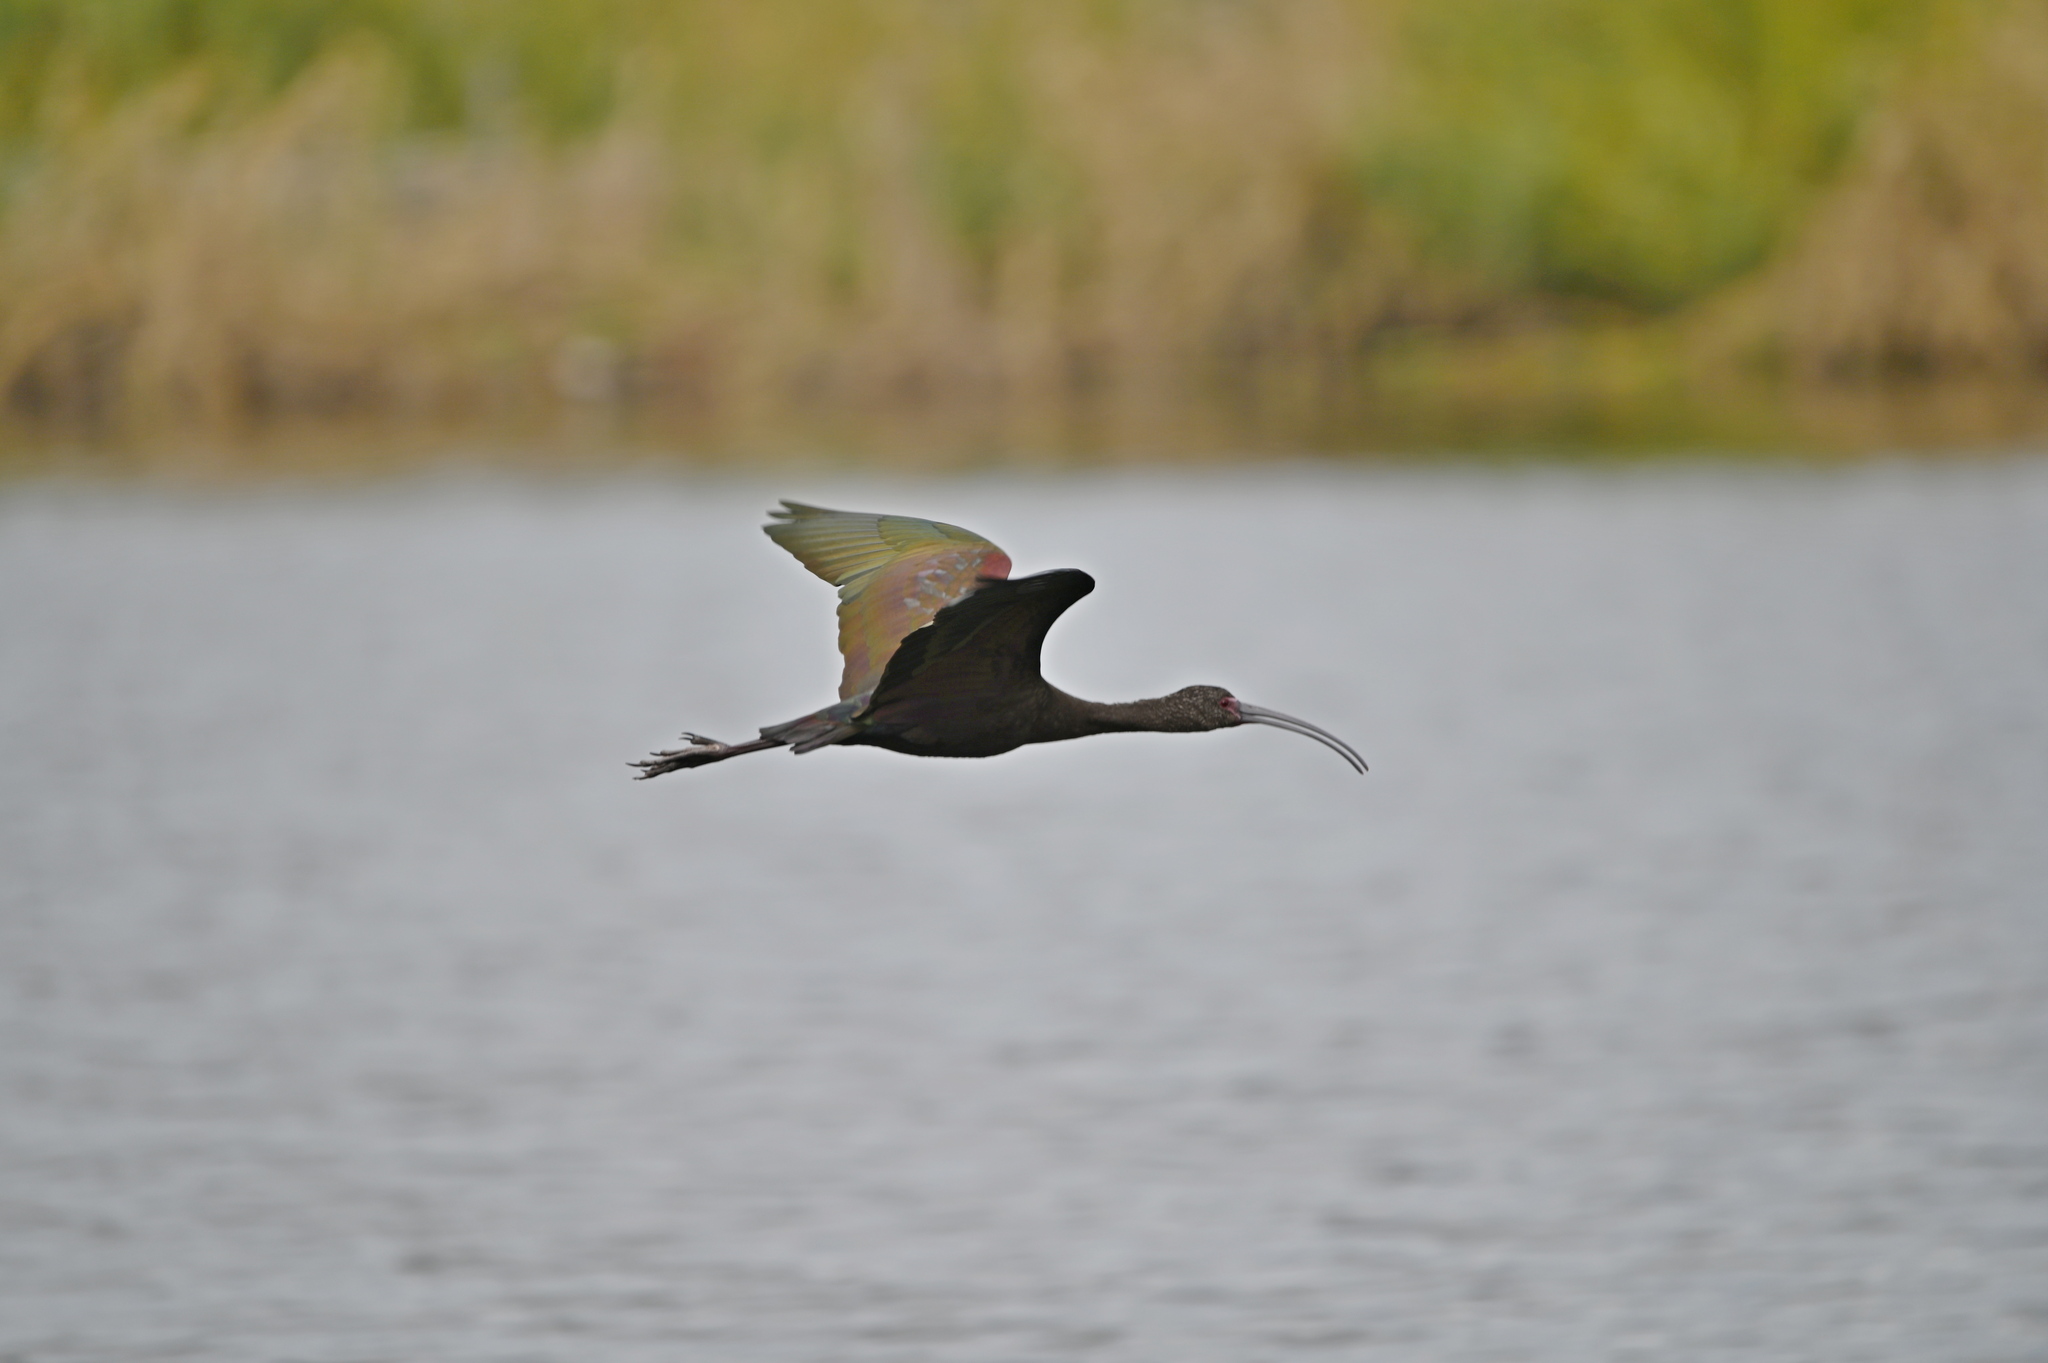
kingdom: Animalia
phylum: Chordata
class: Aves
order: Pelecaniformes
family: Threskiornithidae
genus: Plegadis
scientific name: Plegadis chihi
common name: White-faced ibis
